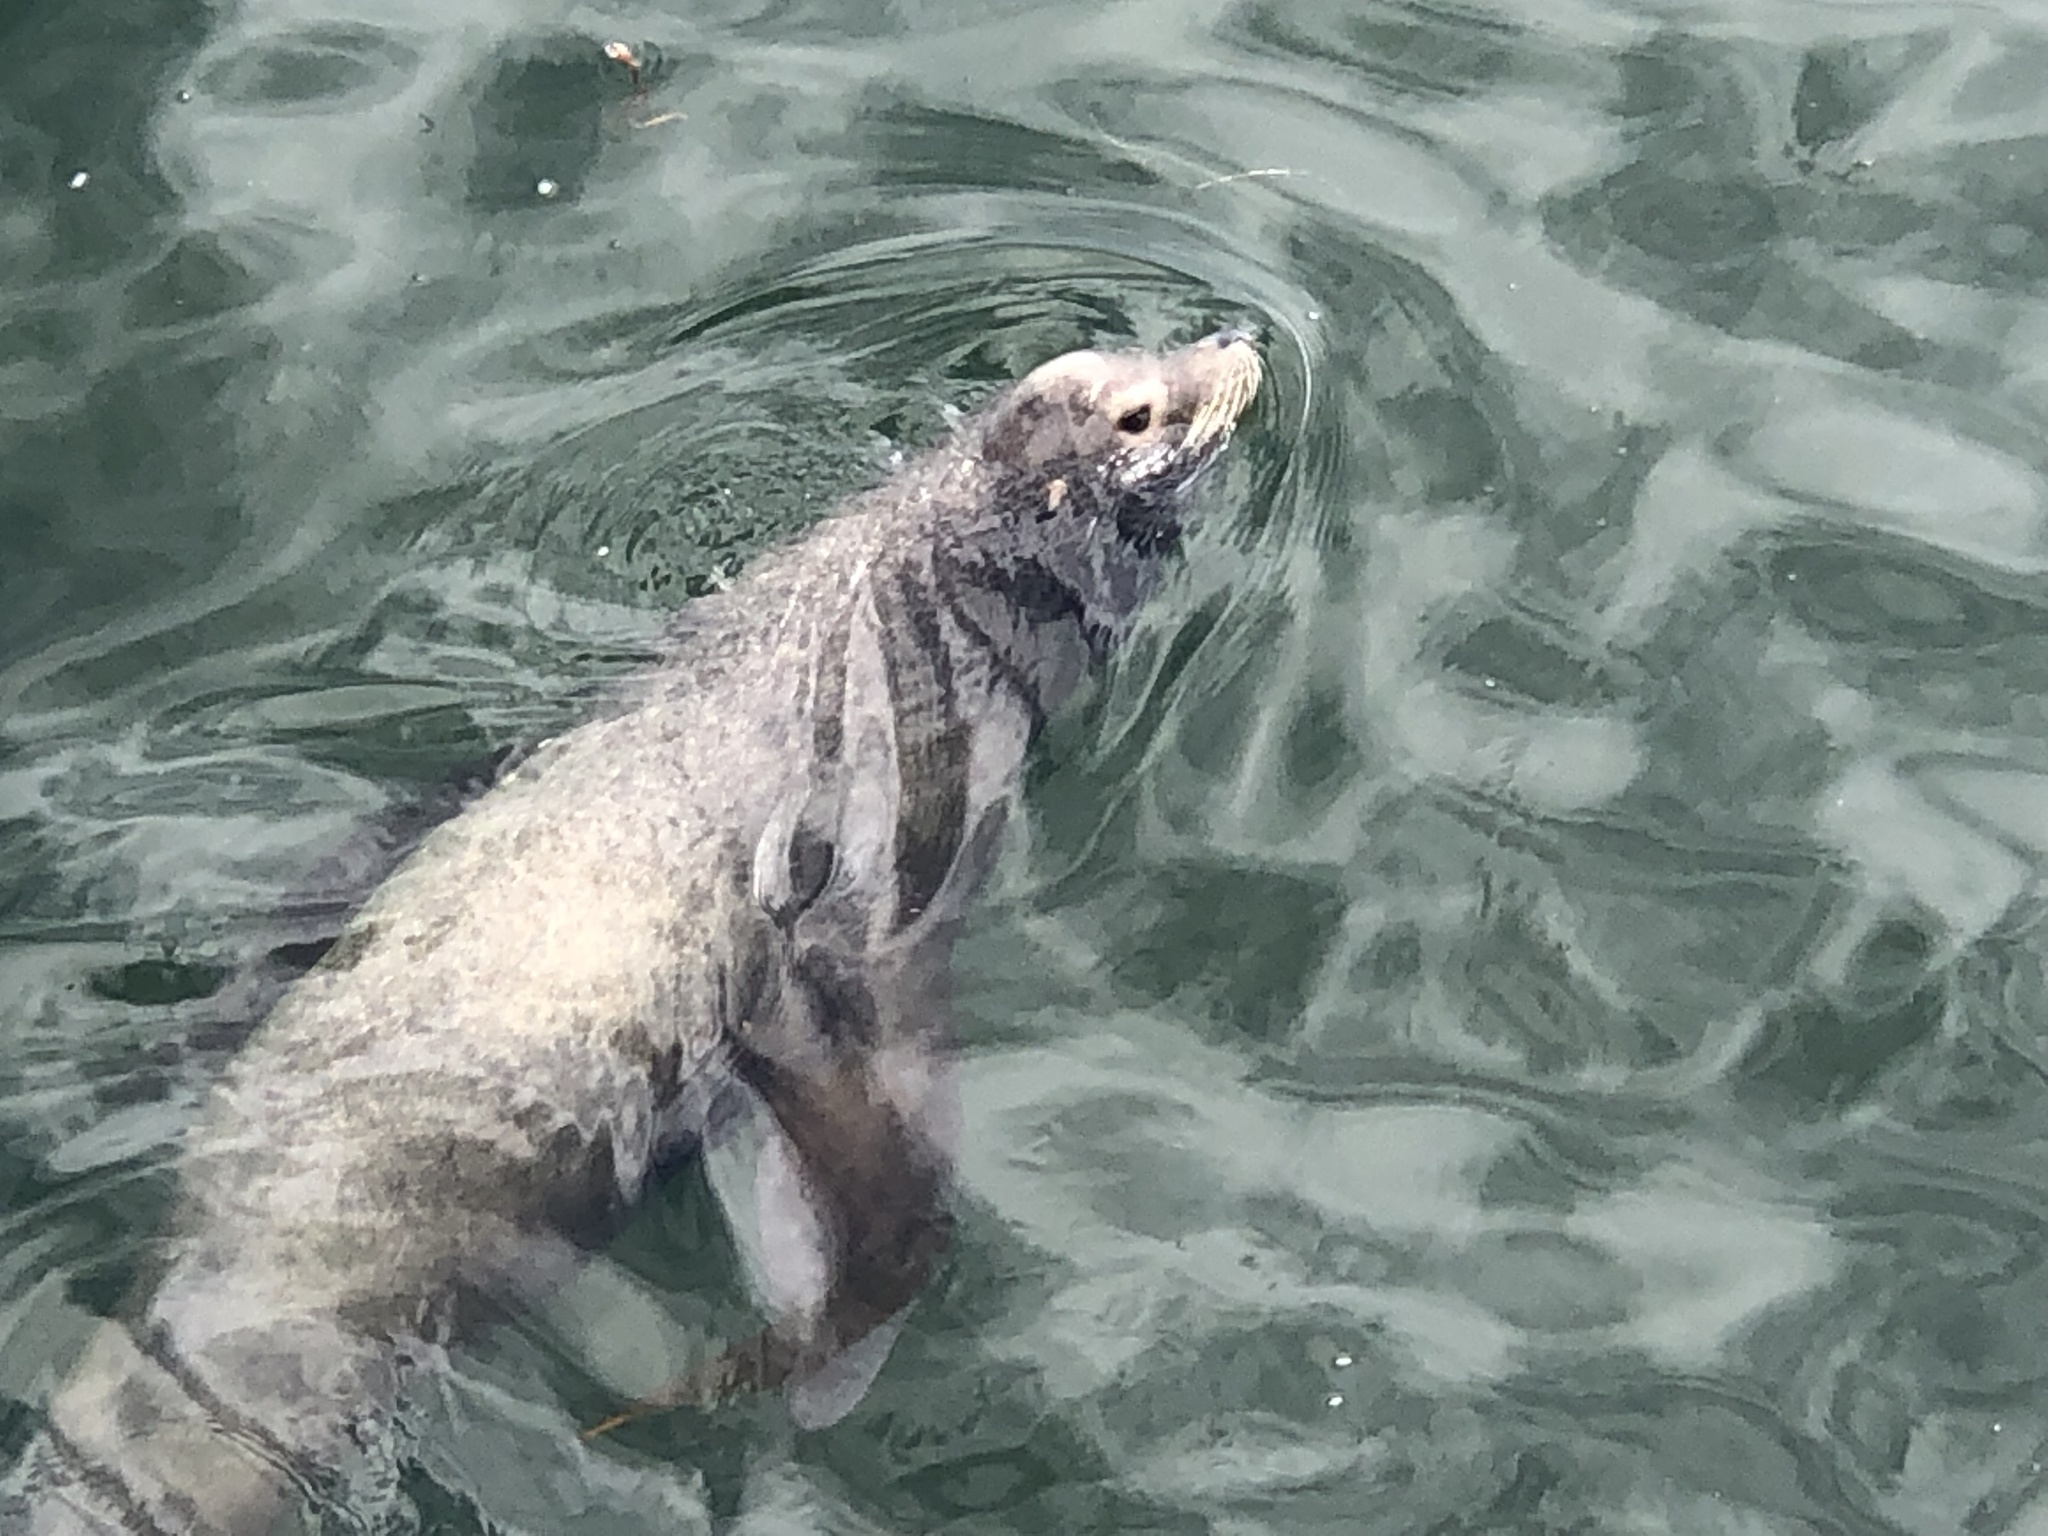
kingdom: Animalia
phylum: Chordata
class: Mammalia
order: Carnivora
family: Otariidae
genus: Zalophus
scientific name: Zalophus californianus
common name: California sea lion
